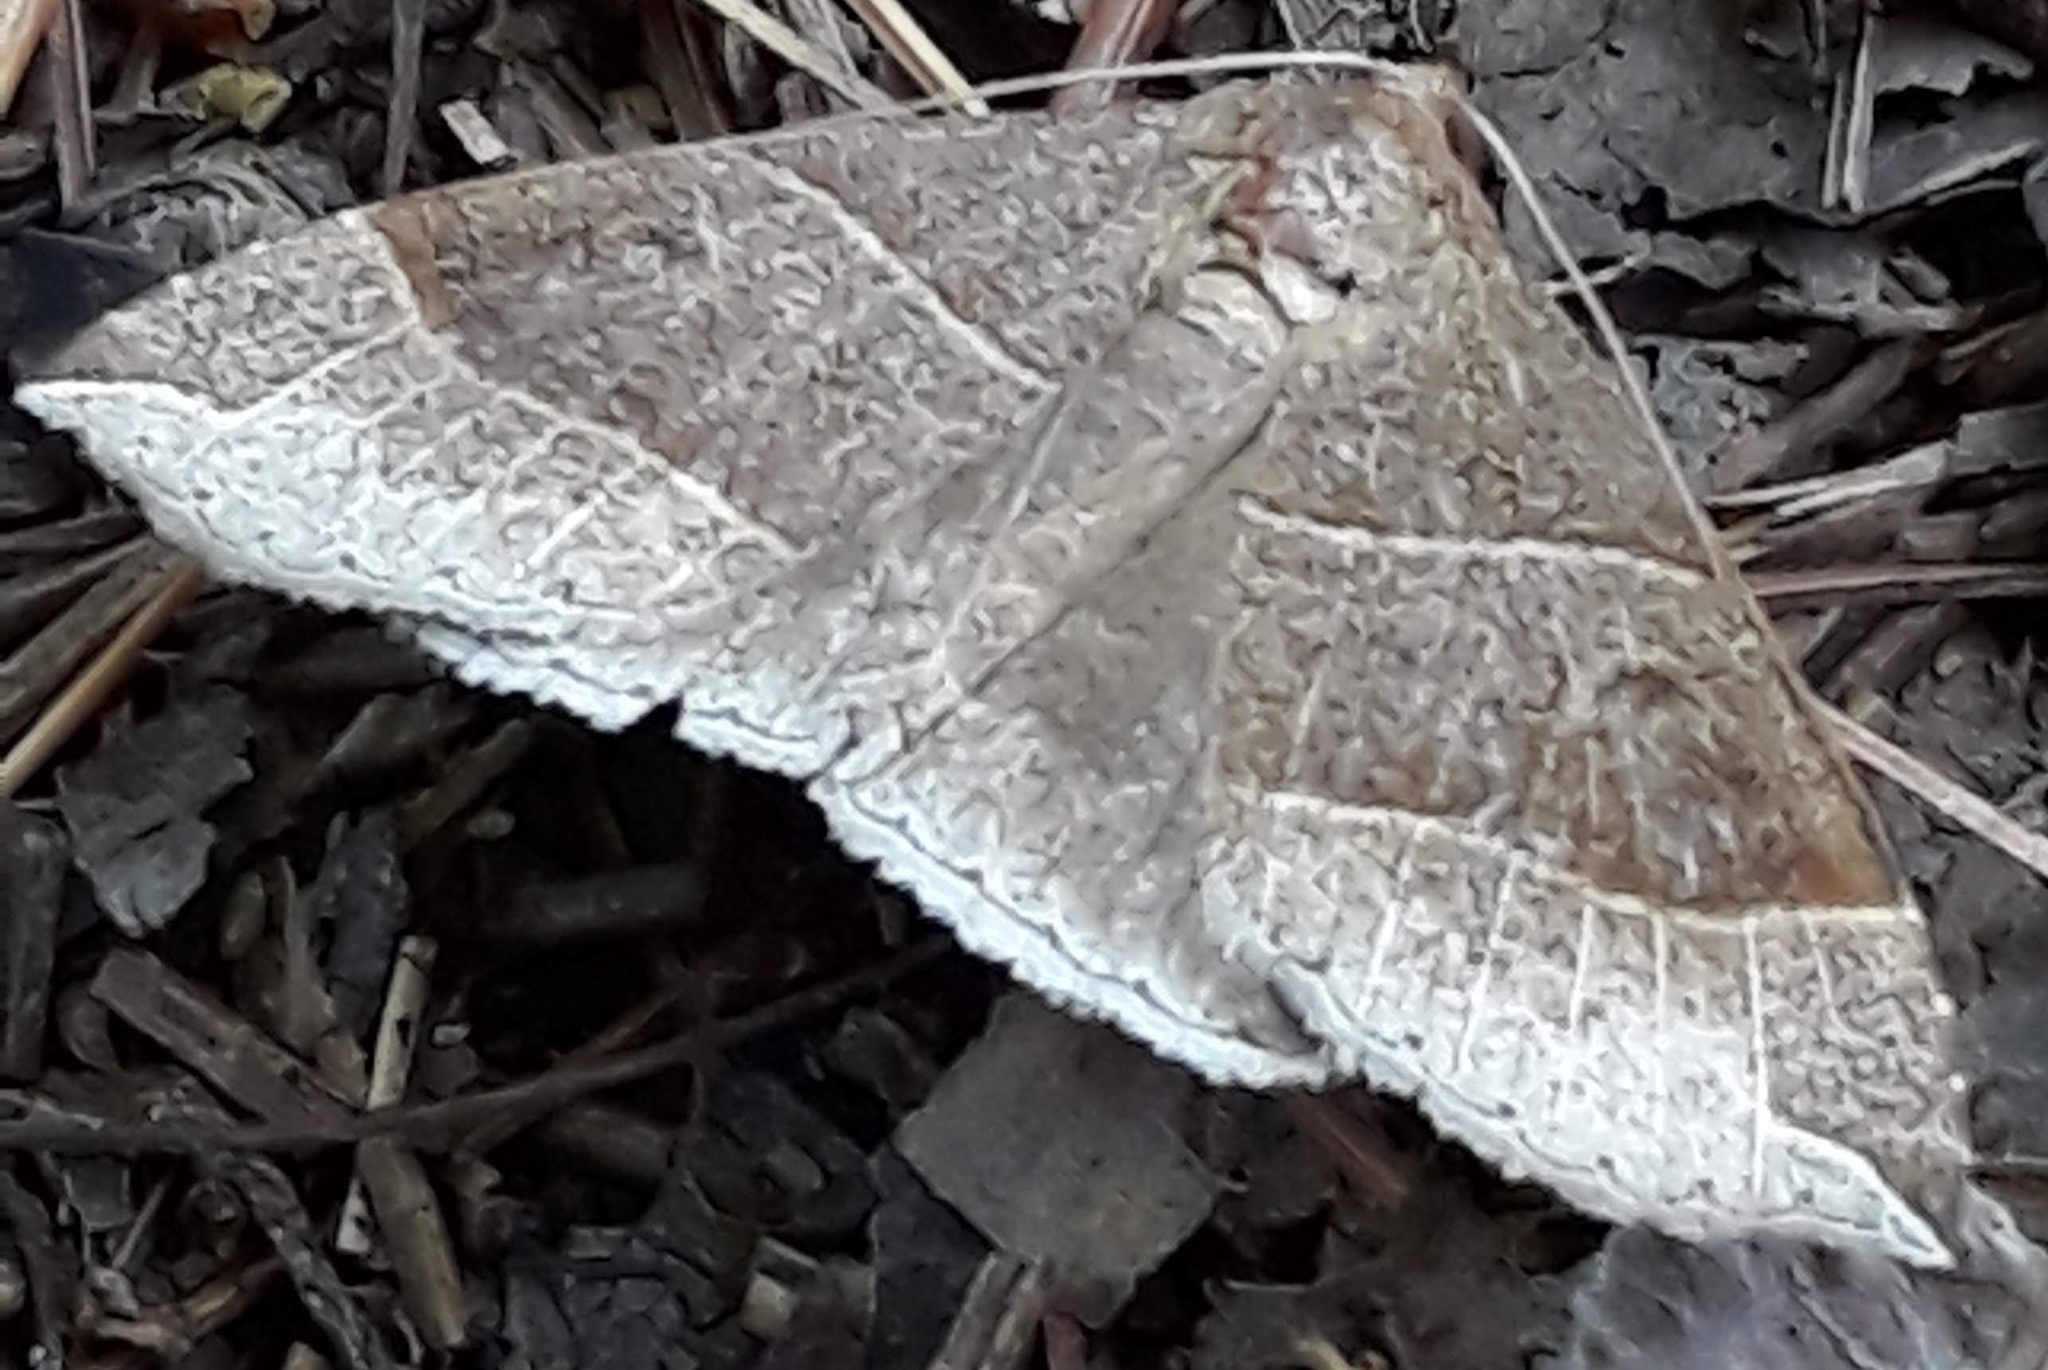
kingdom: Animalia
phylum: Arthropoda
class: Insecta
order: Lepidoptera
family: Erebidae
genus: Parallelia
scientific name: Parallelia bistriaris
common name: Maple looper moth
